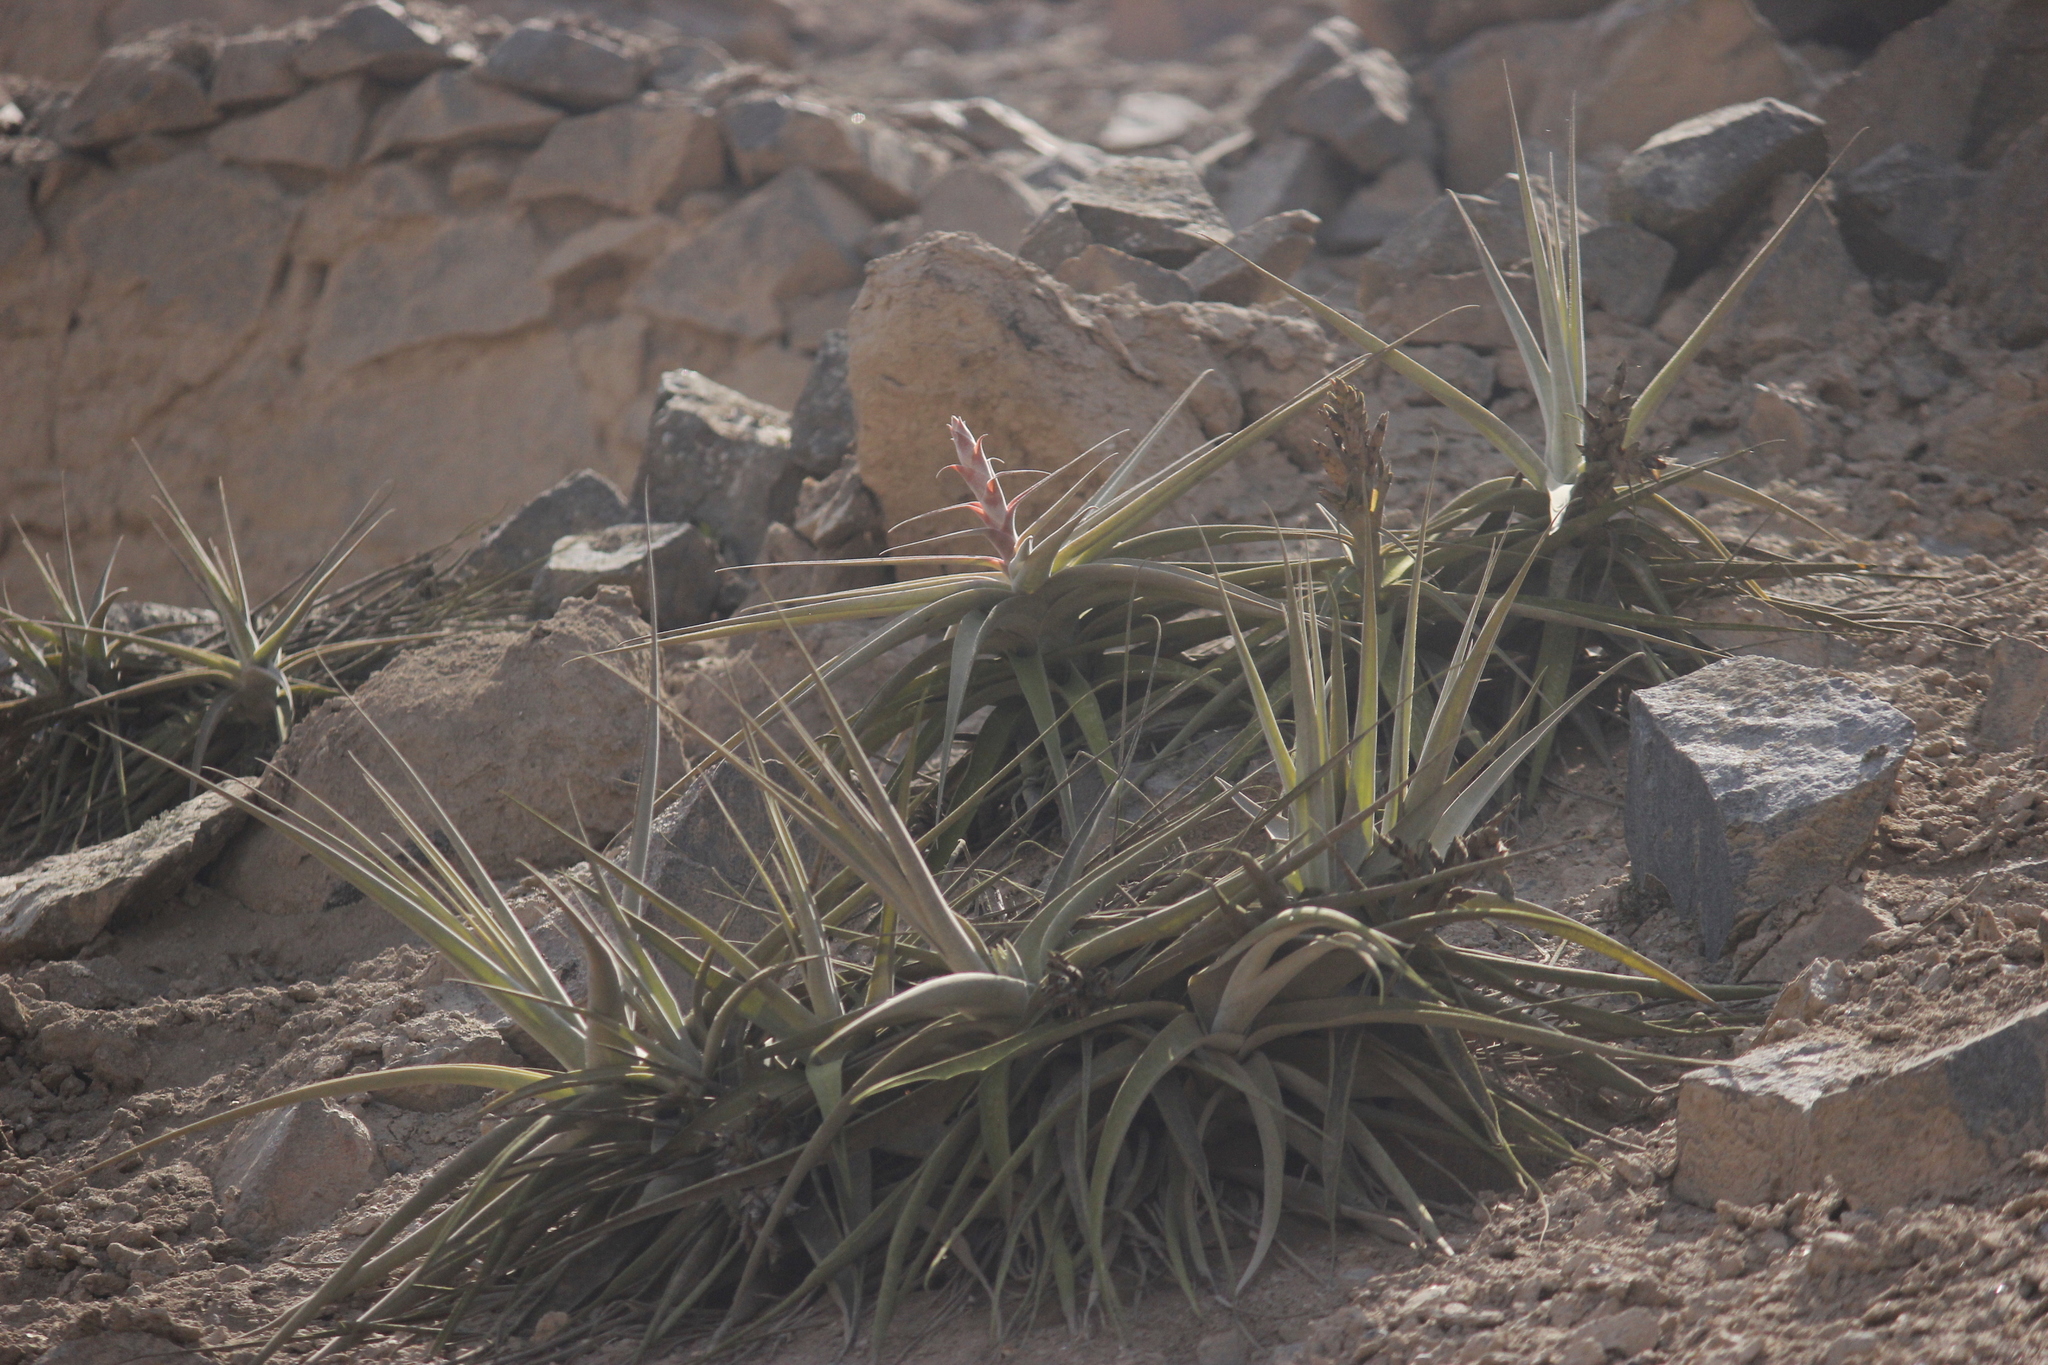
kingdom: Plantae
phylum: Tracheophyta
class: Liliopsida
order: Poales
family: Bromeliaceae
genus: Tillandsia
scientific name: Tillandsia latifolia
